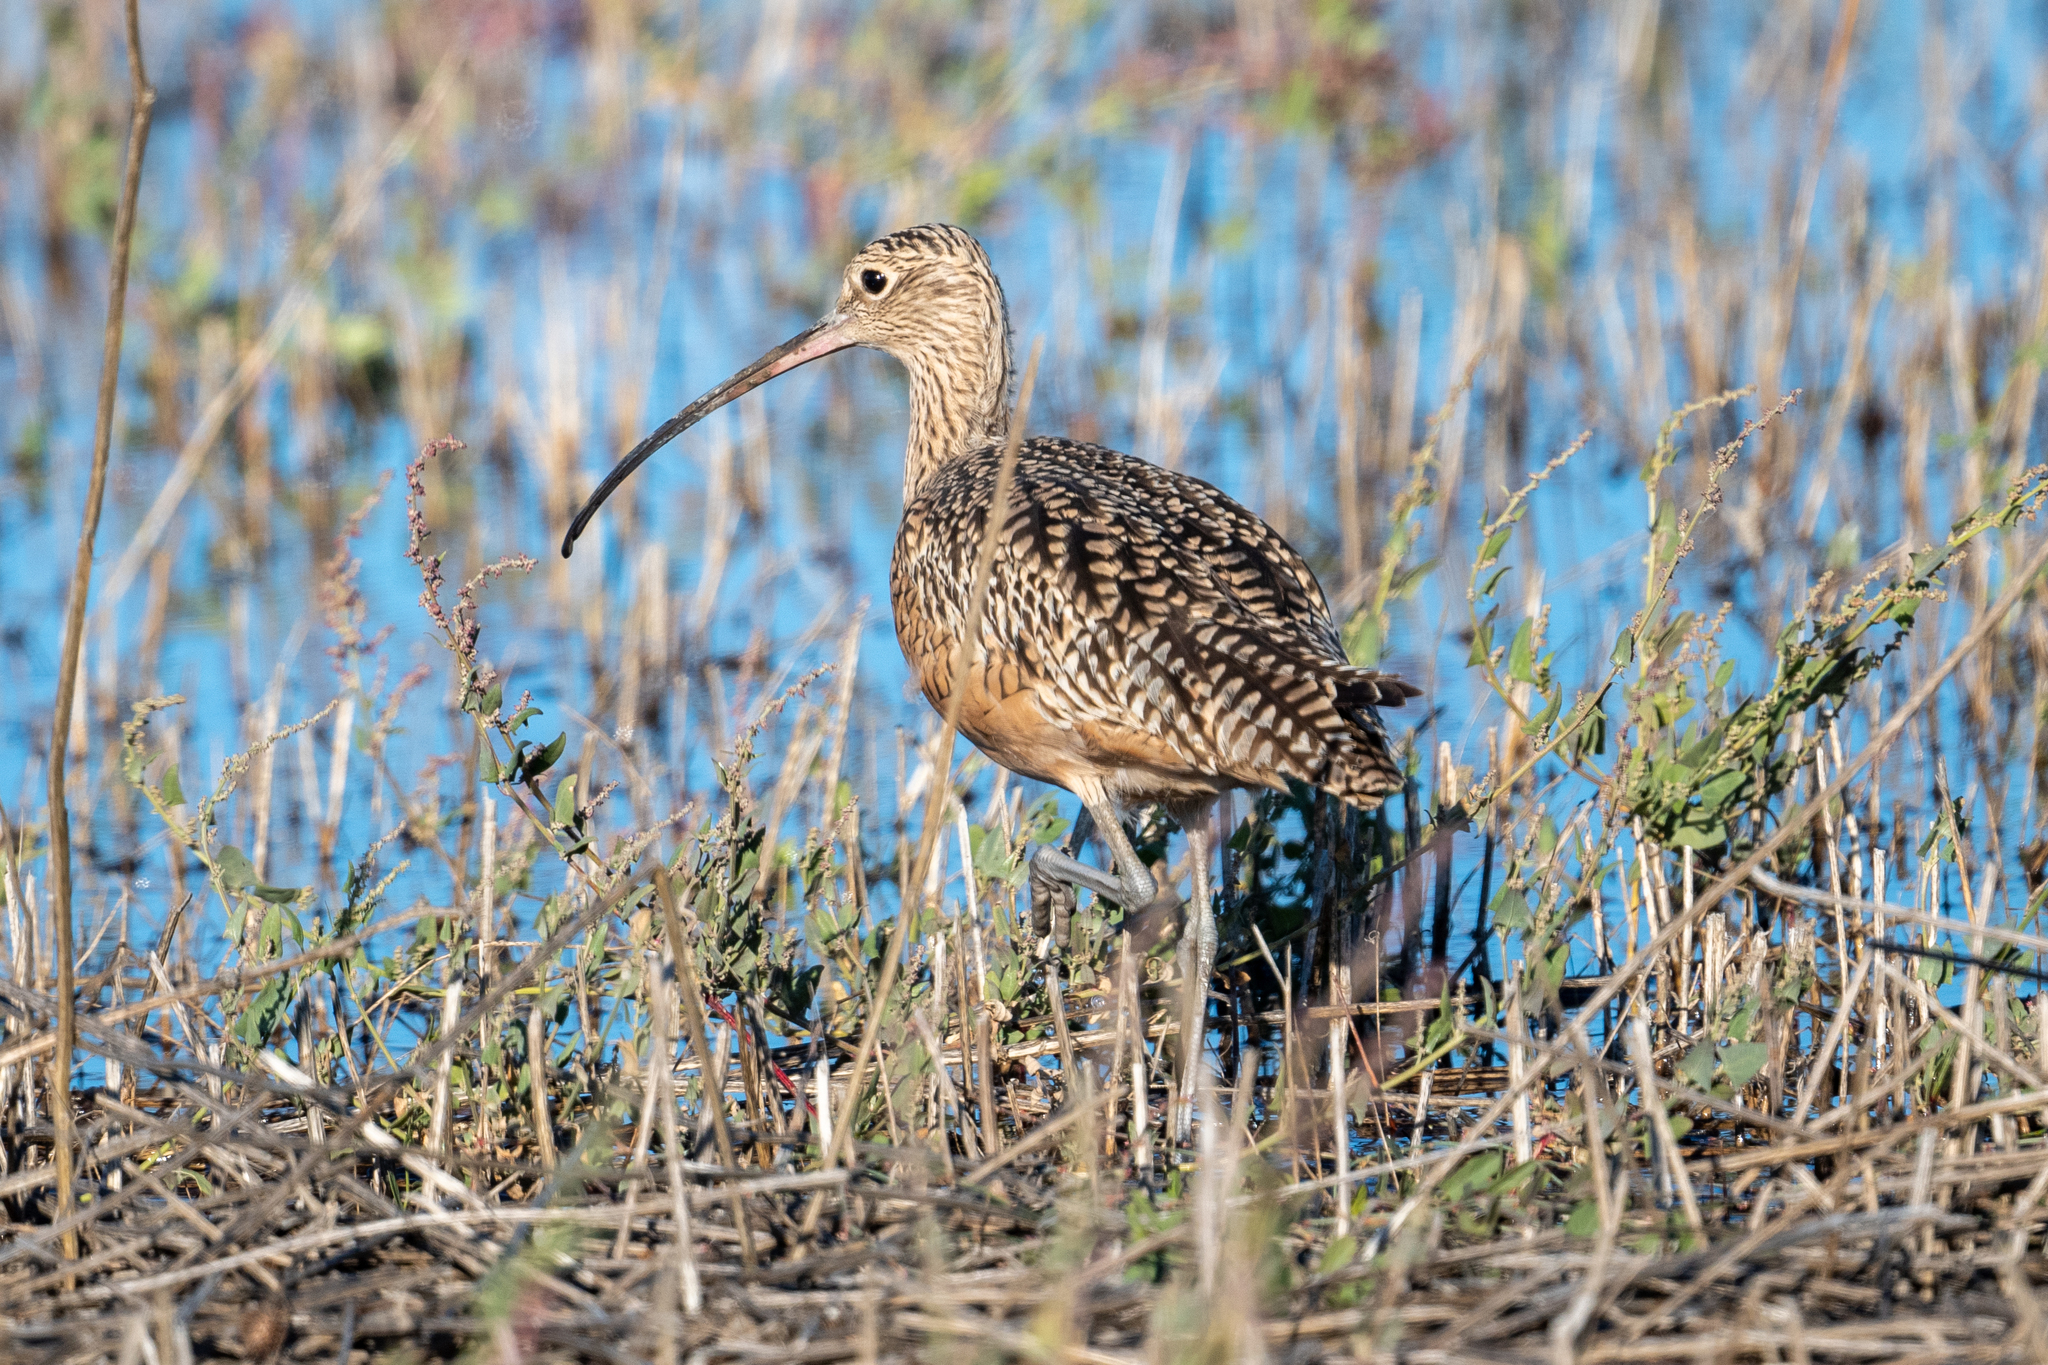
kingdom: Animalia
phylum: Chordata
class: Aves
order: Charadriiformes
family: Scolopacidae
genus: Numenius
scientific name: Numenius americanus
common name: Long-billed curlew
